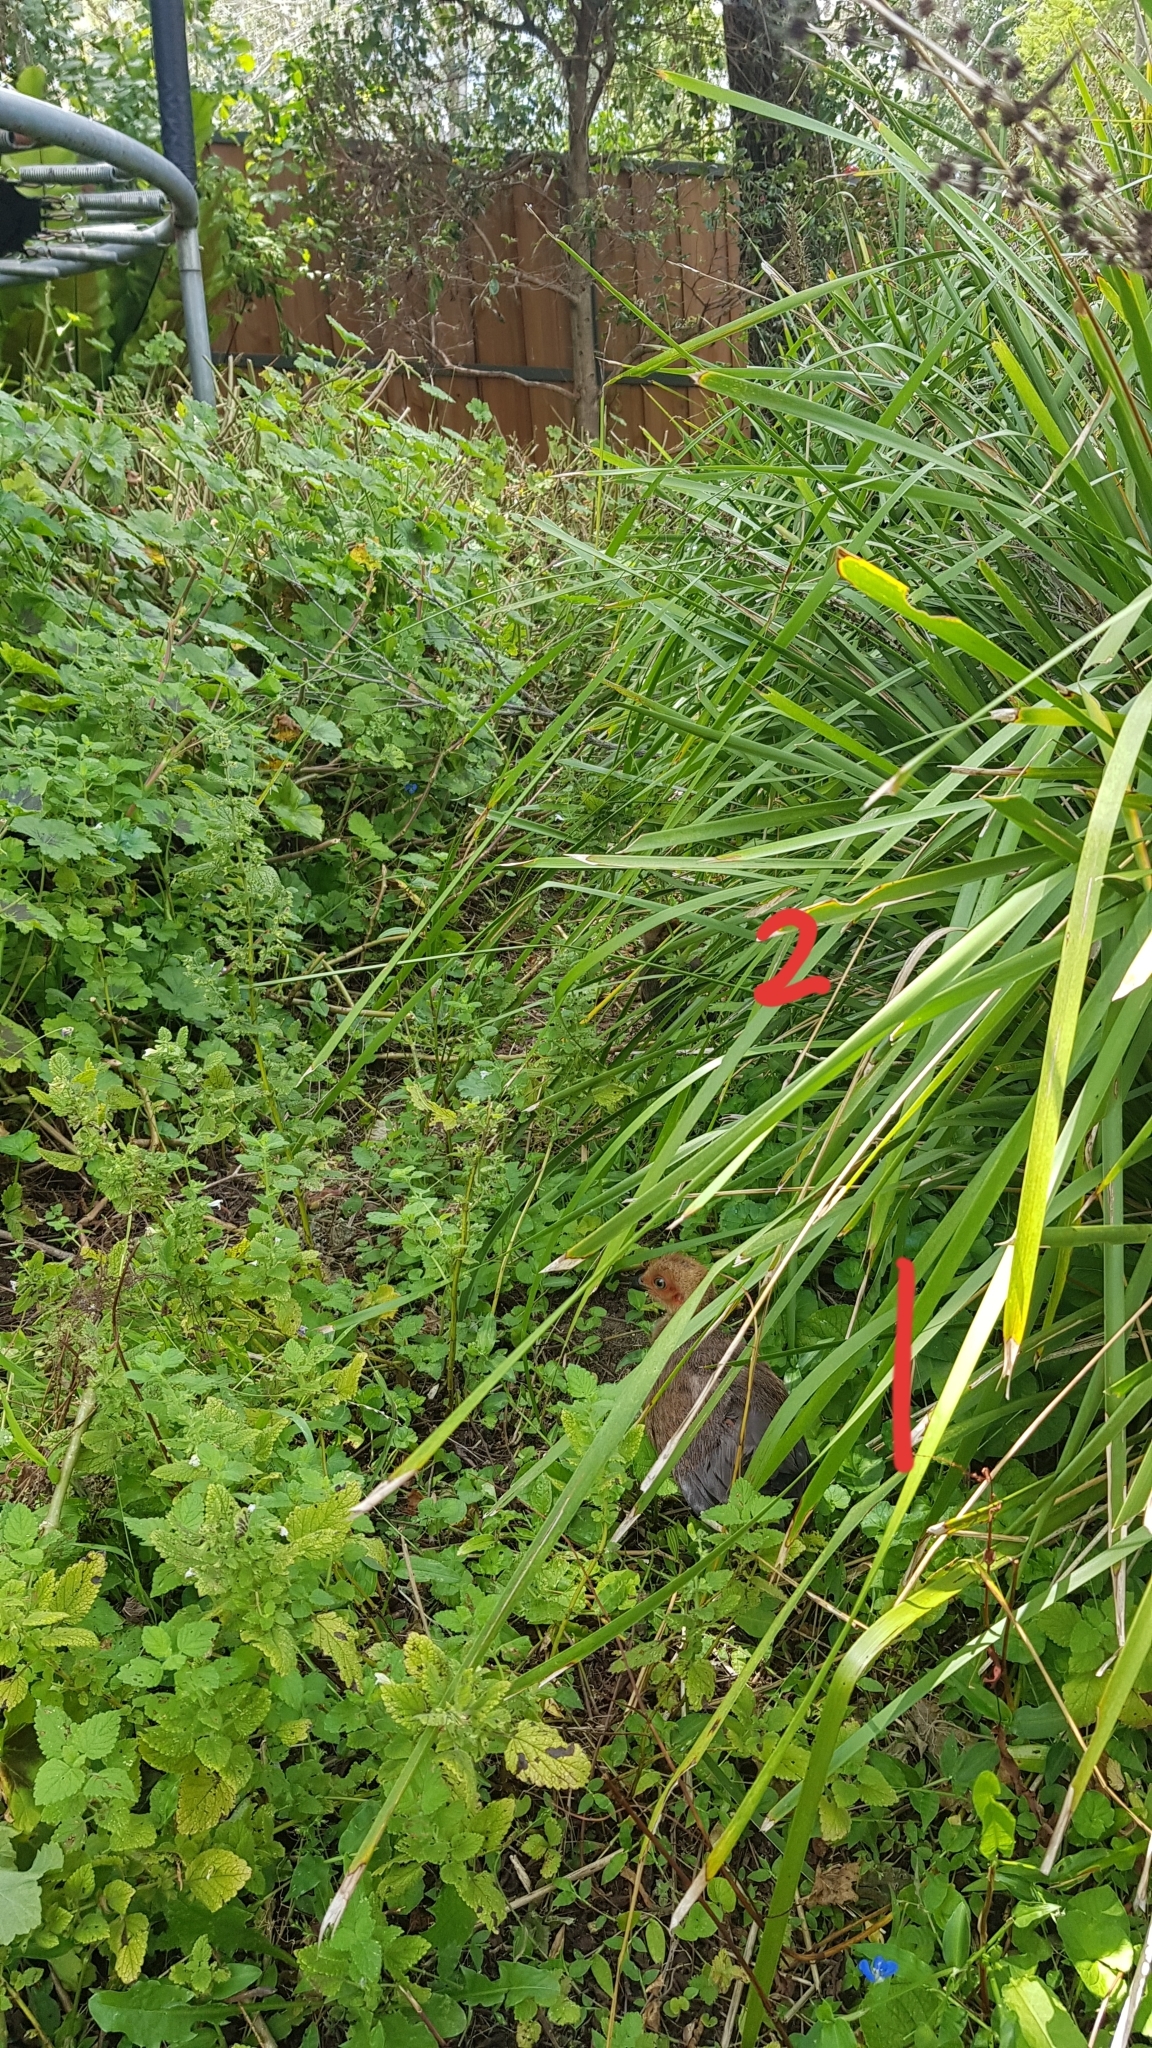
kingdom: Animalia
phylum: Chordata
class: Aves
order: Galliformes
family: Megapodiidae
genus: Alectura
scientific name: Alectura lathami
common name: Australian brushturkey
